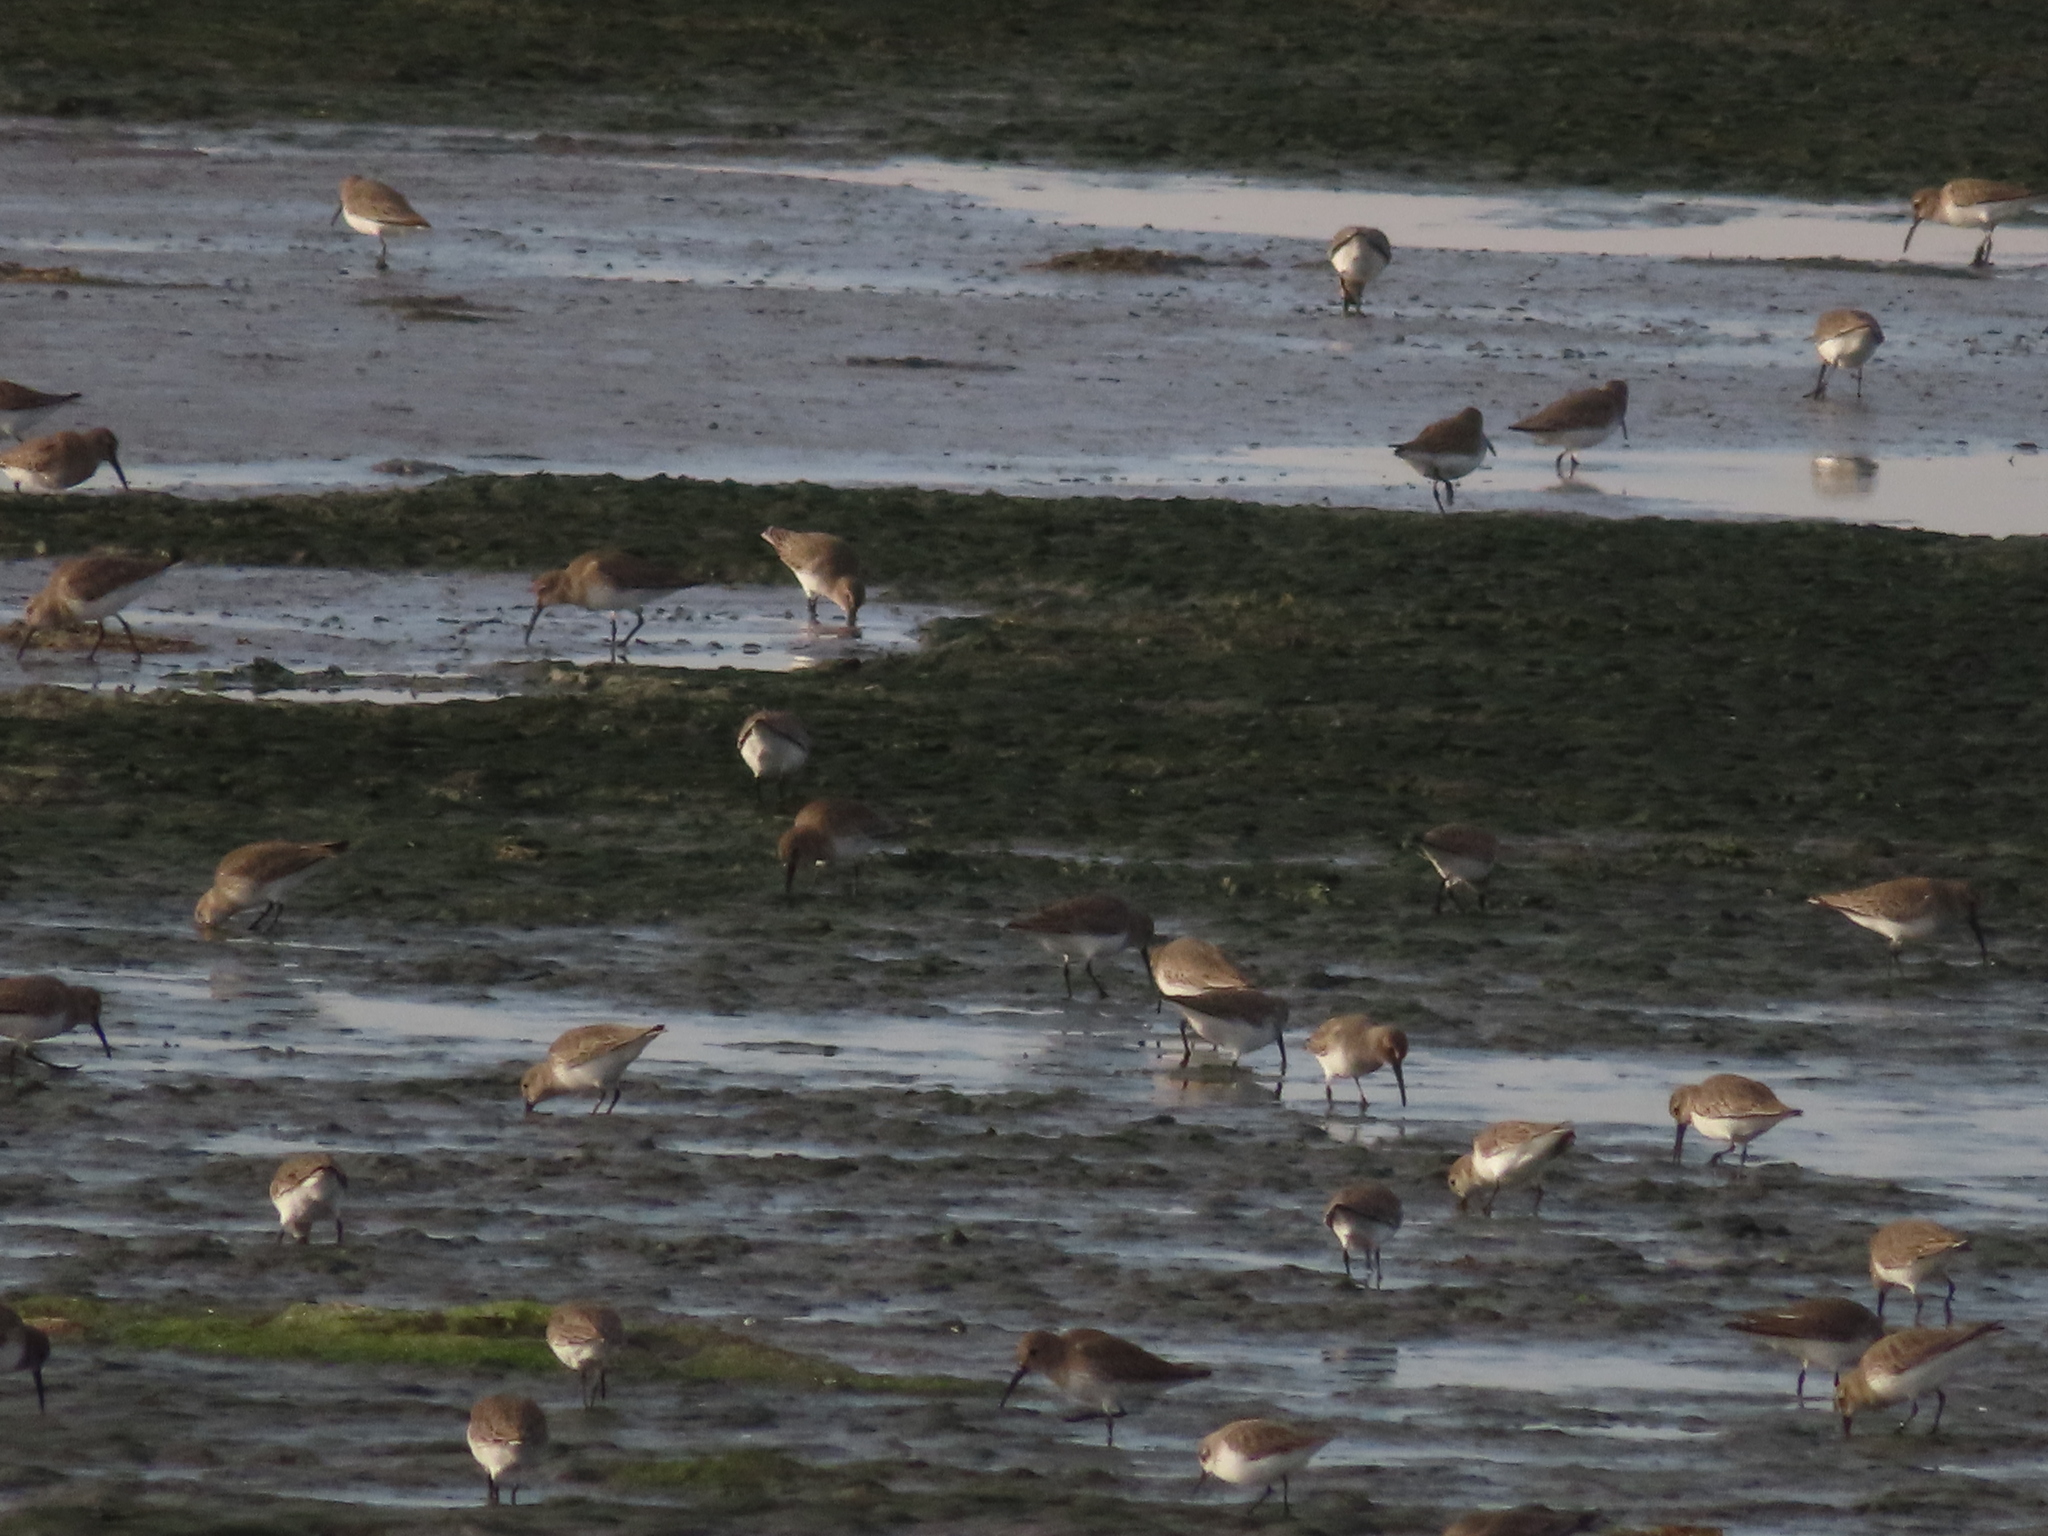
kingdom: Animalia
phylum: Chordata
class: Aves
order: Charadriiformes
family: Scolopacidae
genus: Calidris
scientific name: Calidris alpina
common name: Dunlin
